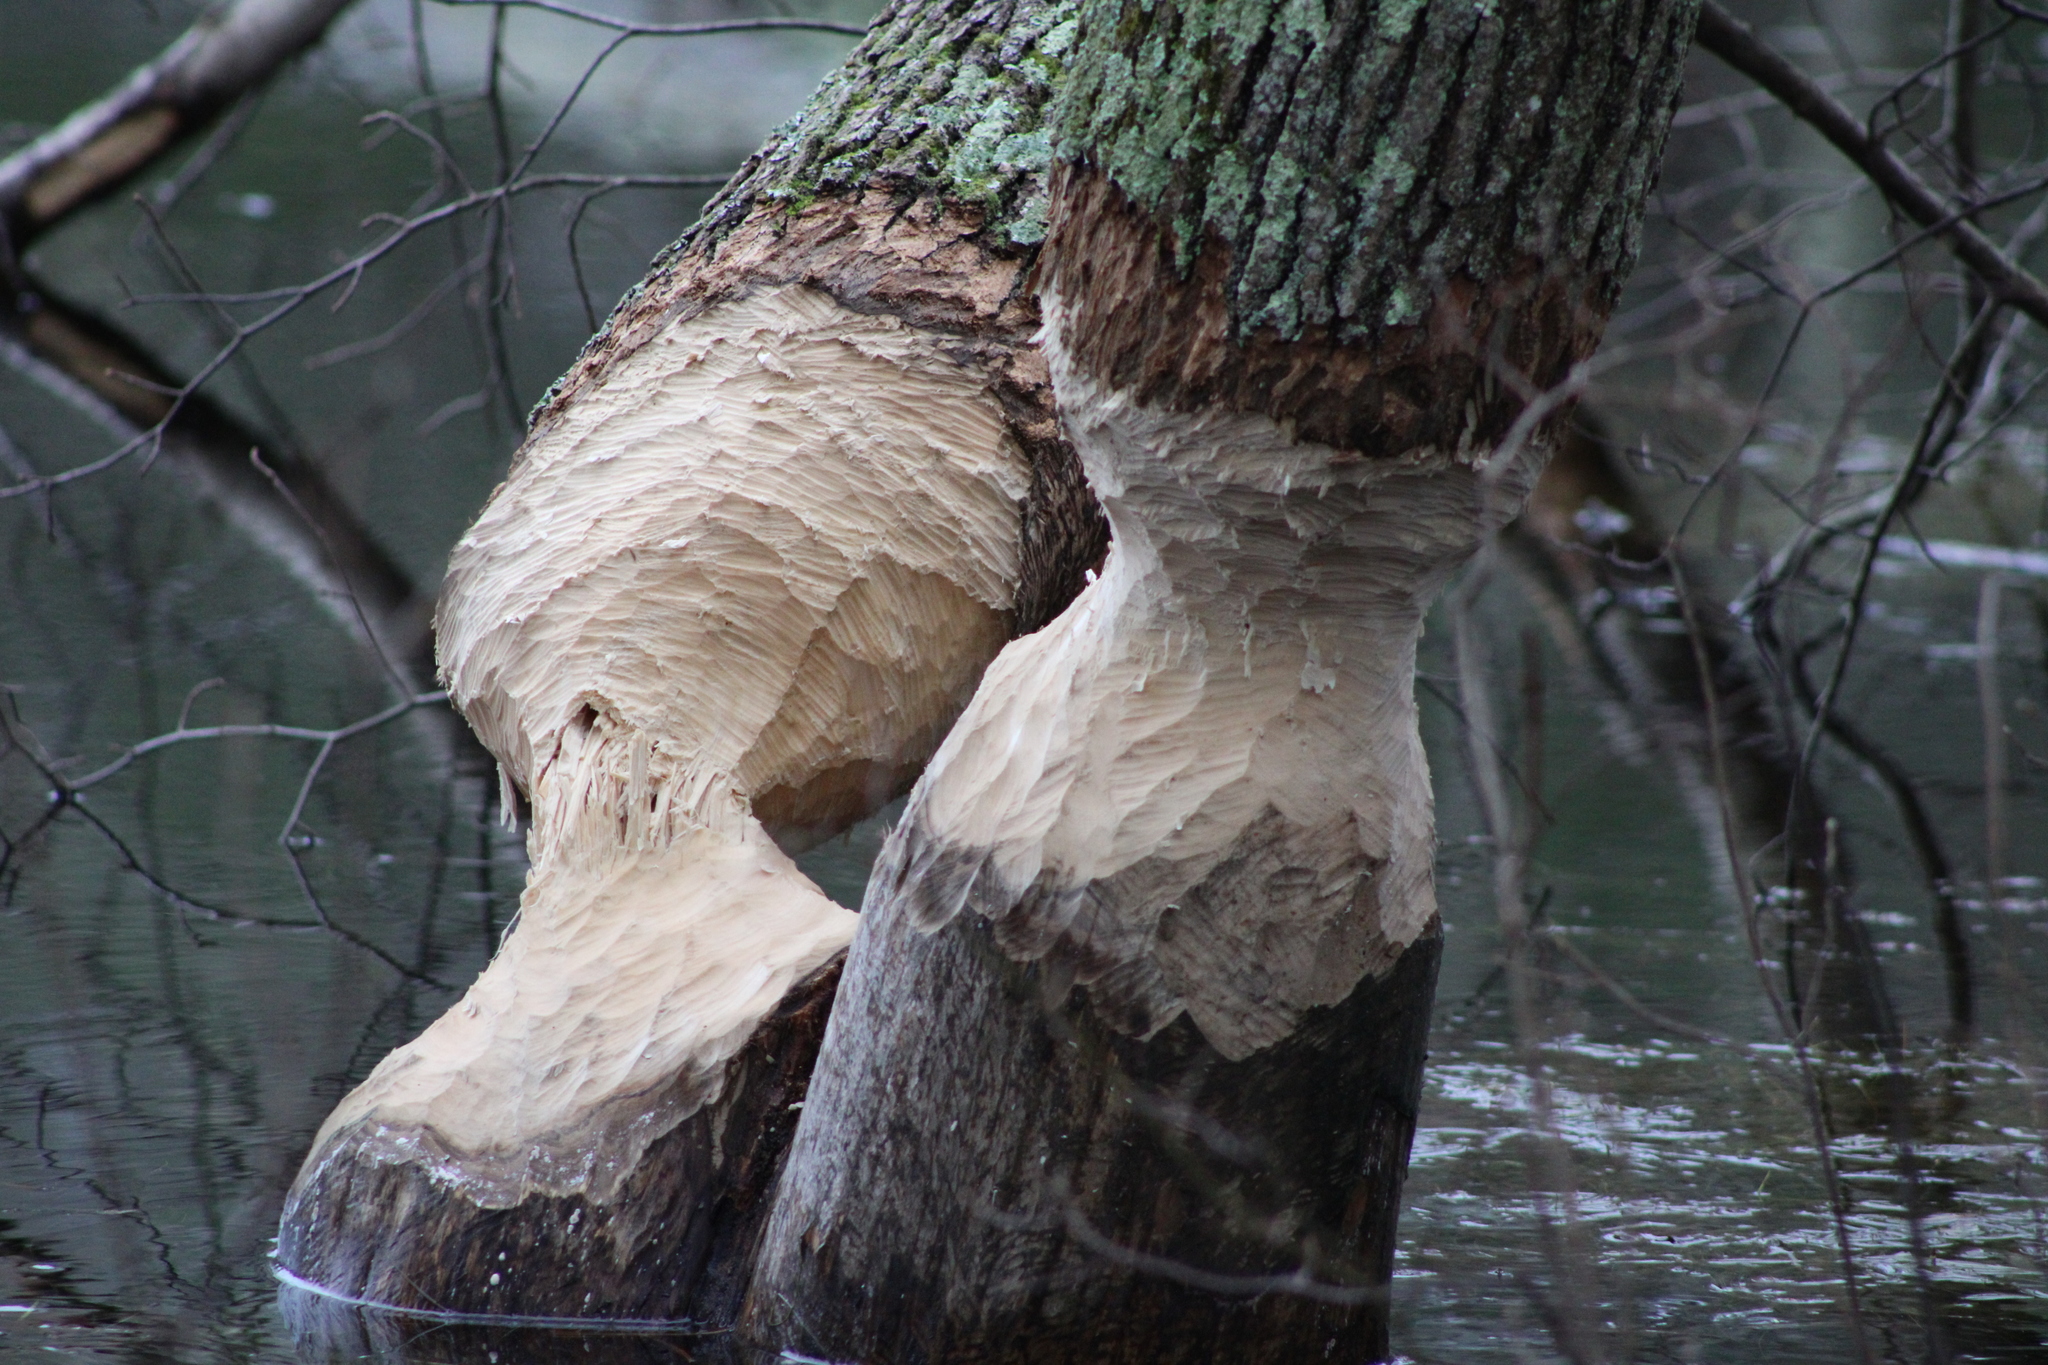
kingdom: Animalia
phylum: Chordata
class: Mammalia
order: Rodentia
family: Castoridae
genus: Castor
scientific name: Castor canadensis
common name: American beaver
